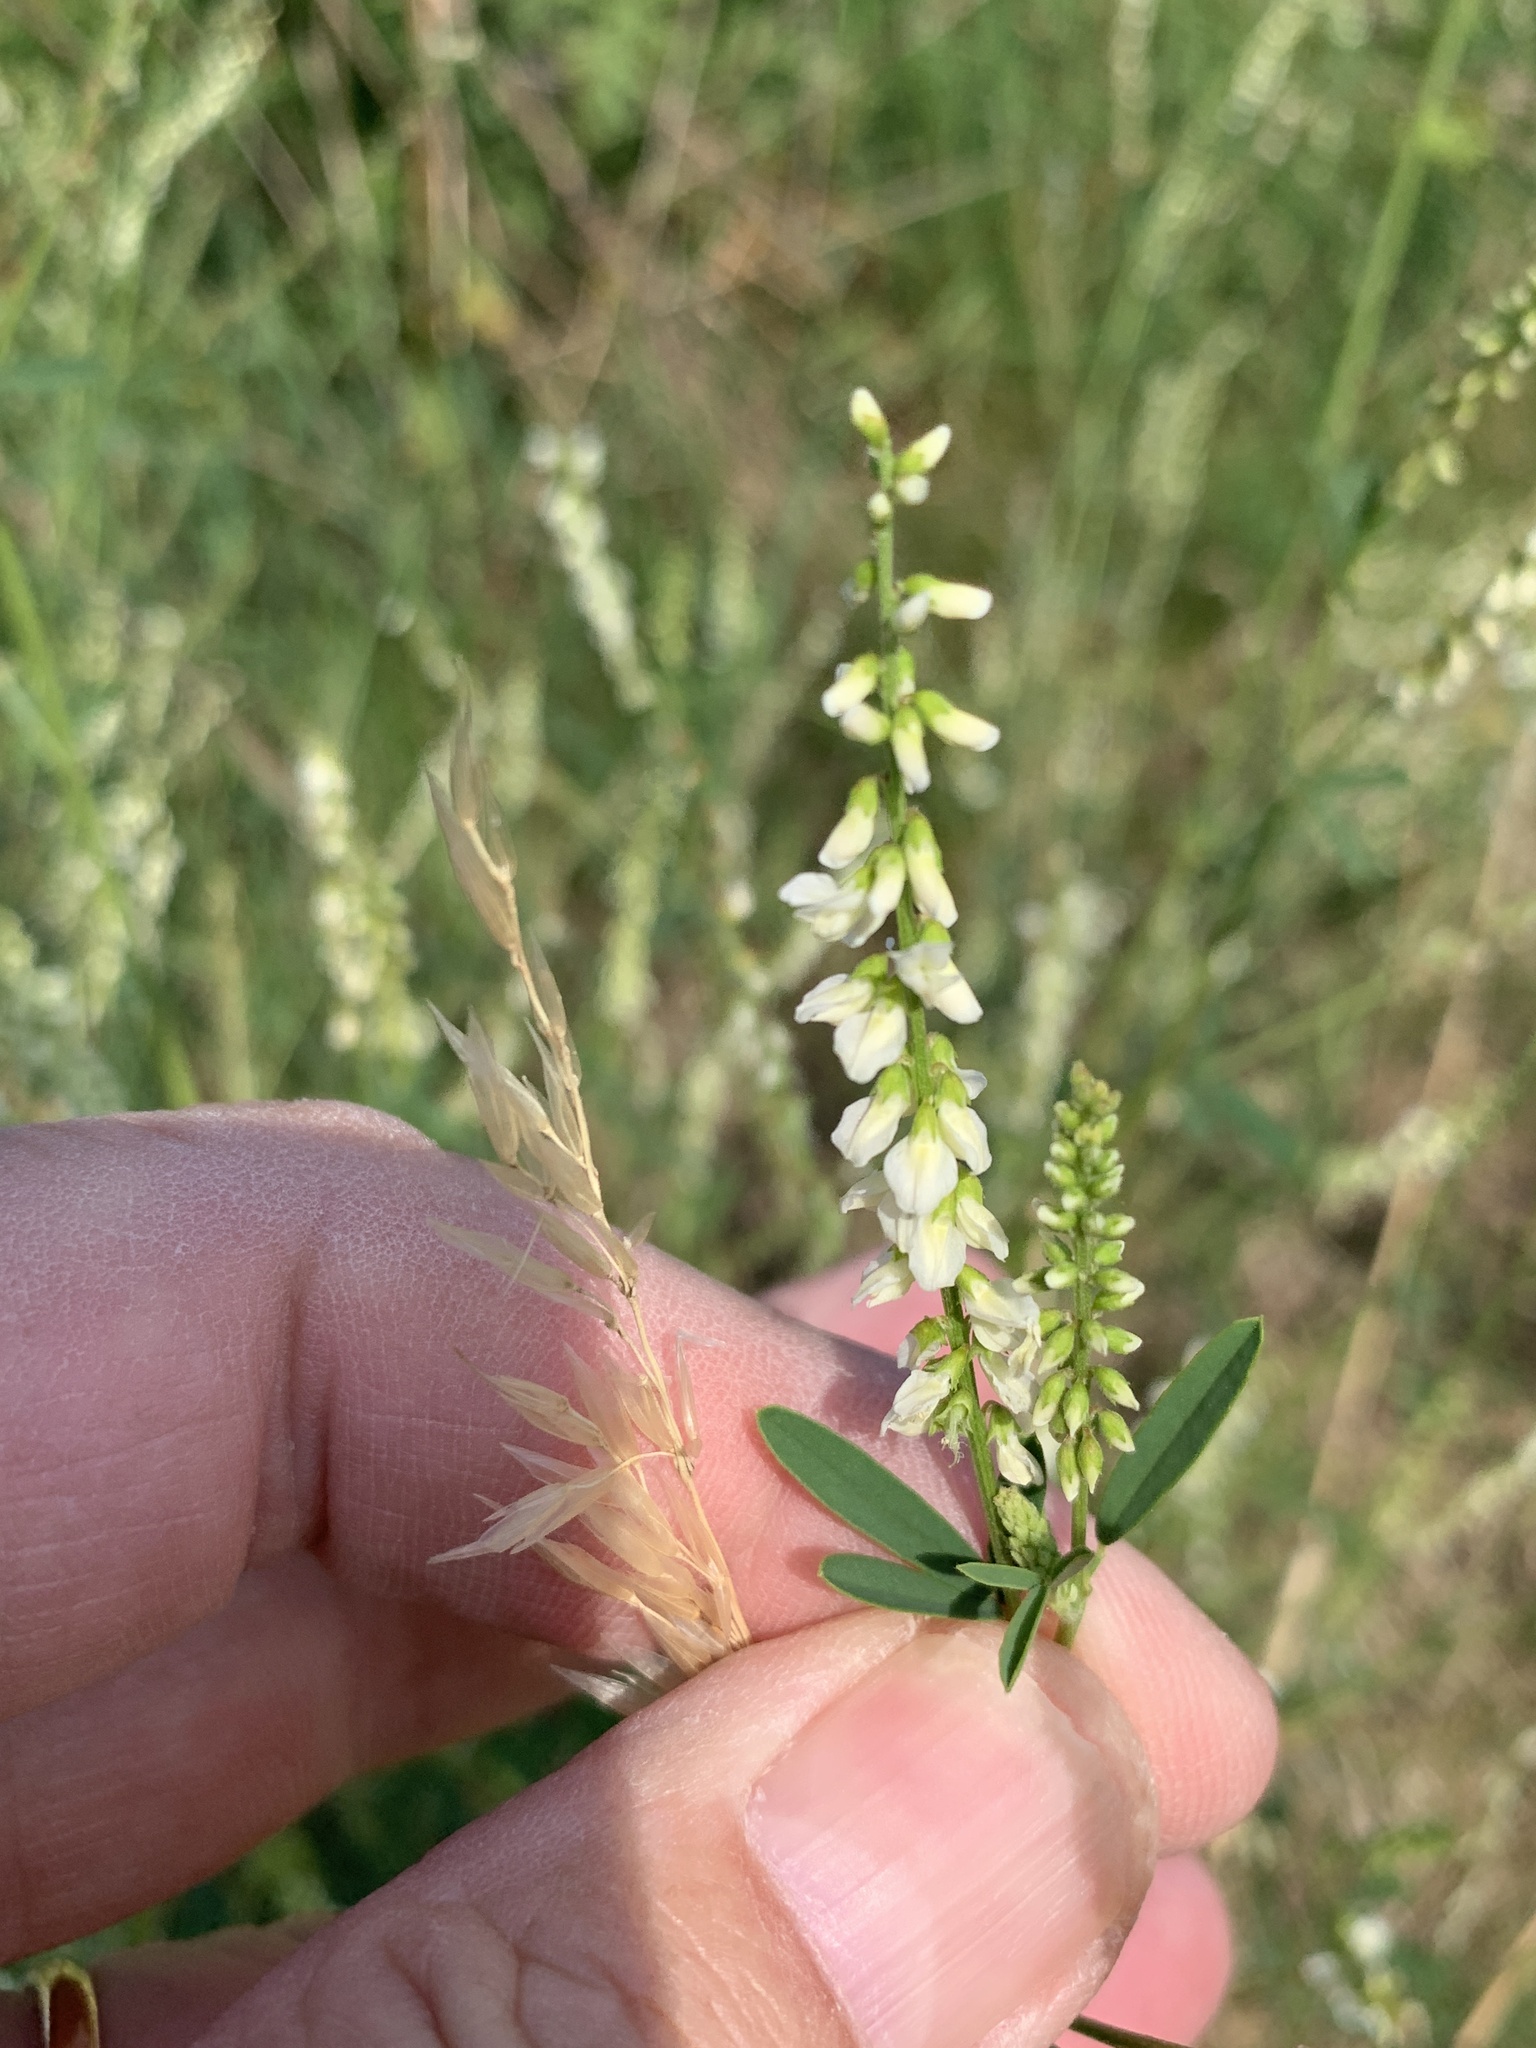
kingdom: Plantae
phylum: Tracheophyta
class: Magnoliopsida
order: Fabales
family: Fabaceae
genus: Melilotus
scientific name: Melilotus albus
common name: White melilot
